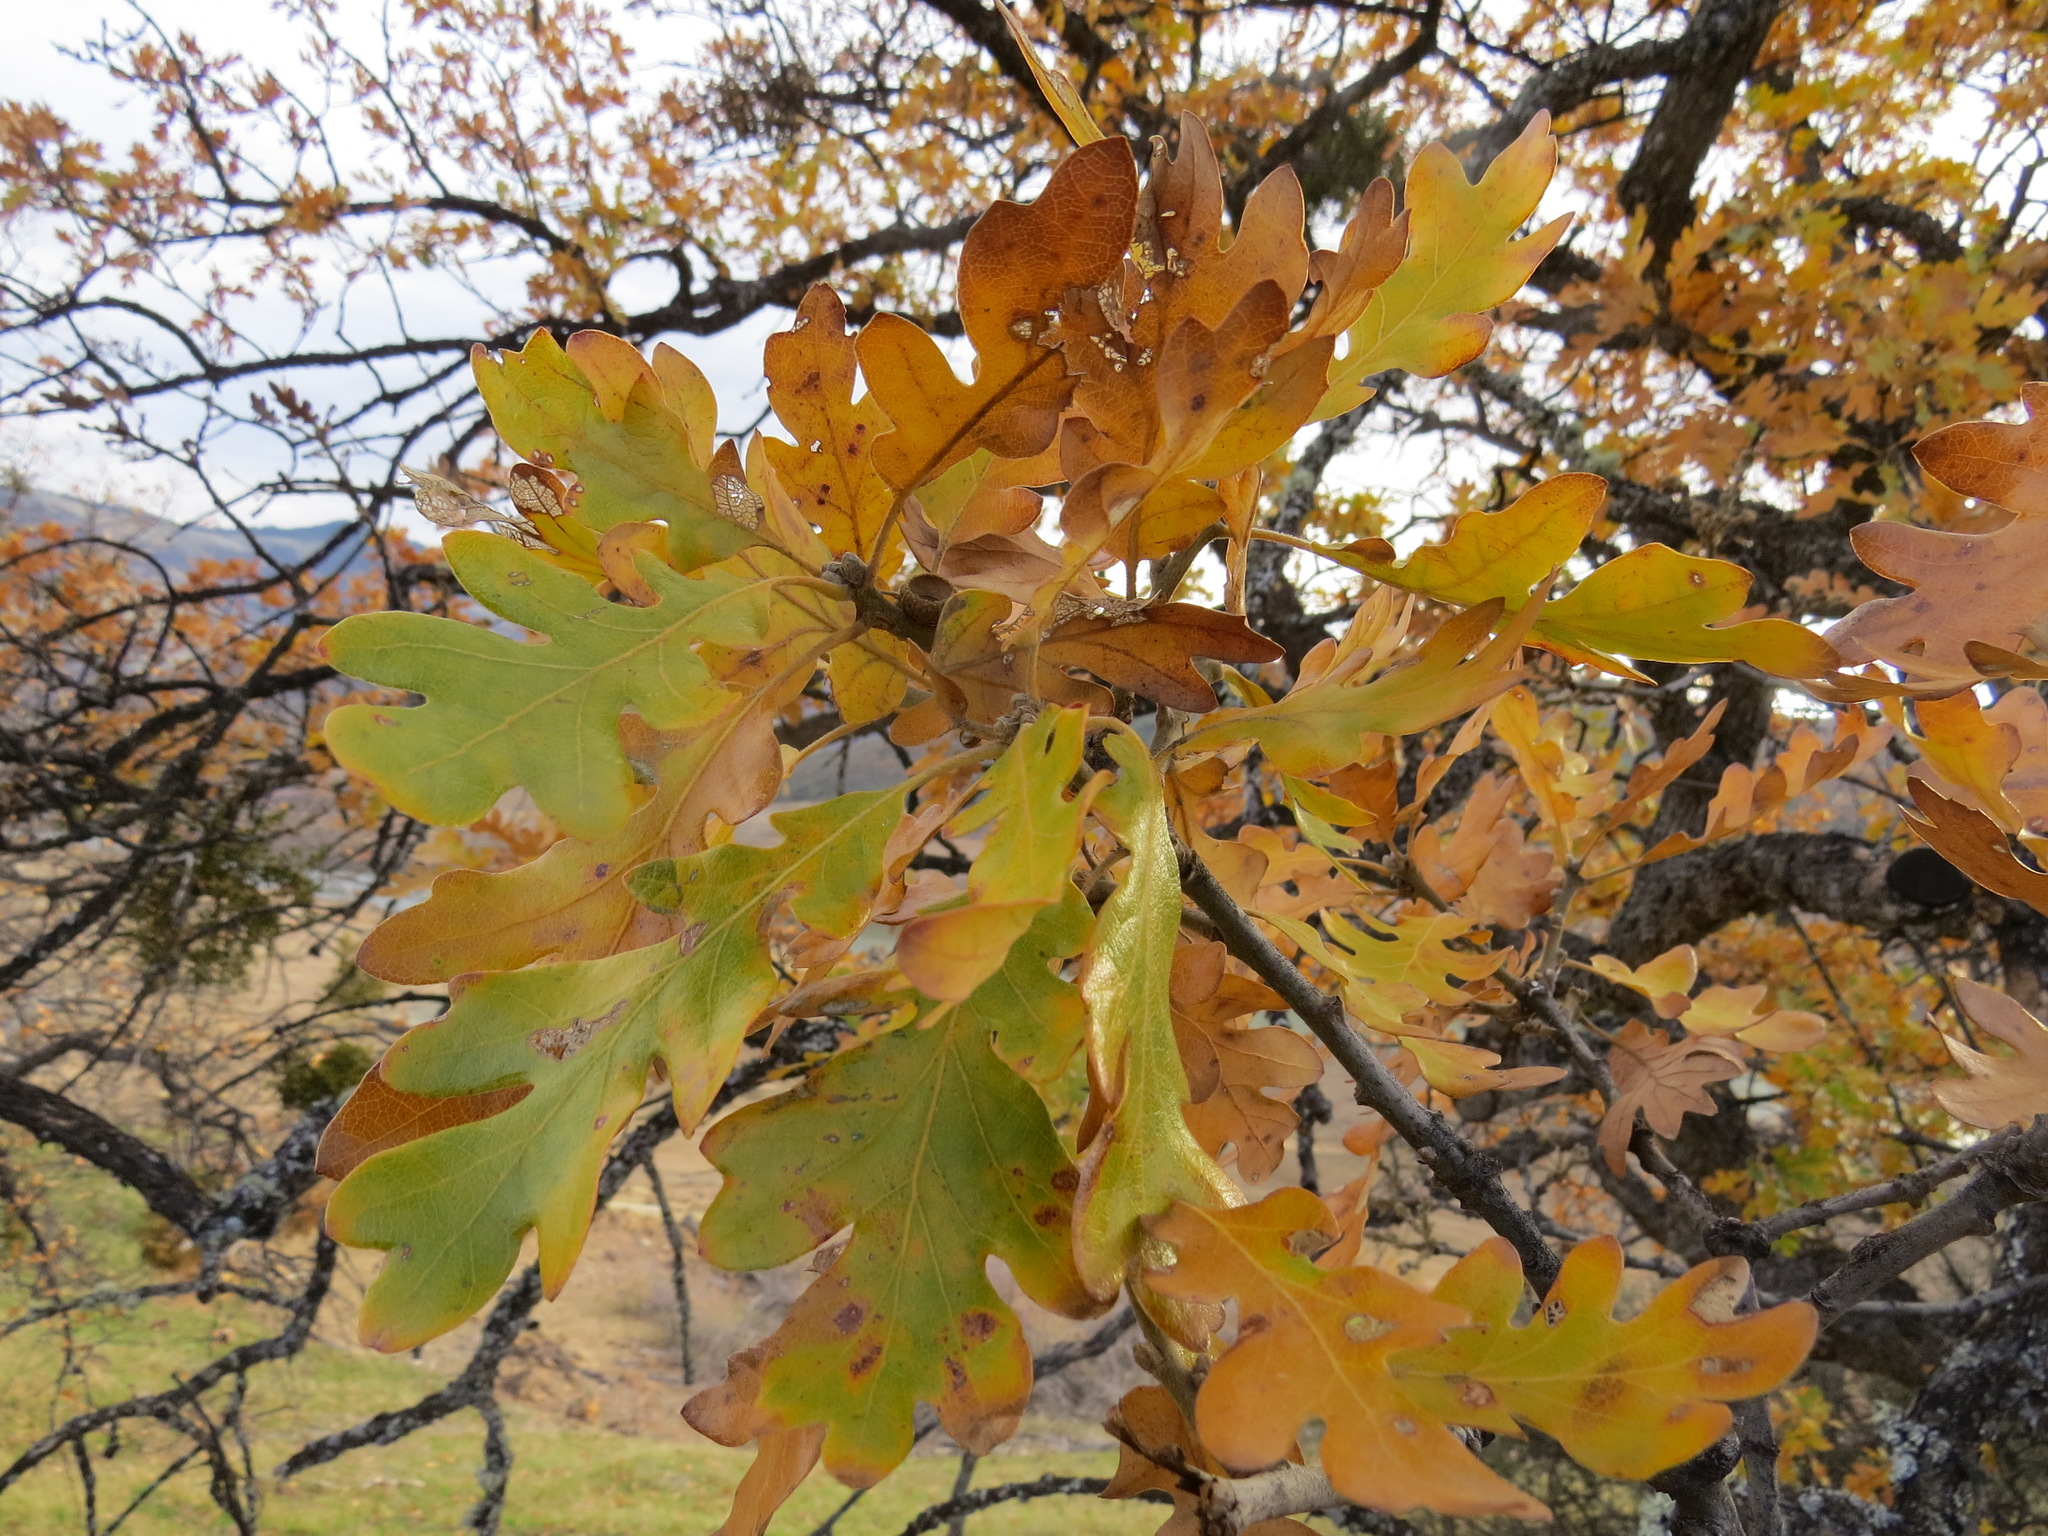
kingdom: Plantae
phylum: Tracheophyta
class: Magnoliopsida
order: Fagales
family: Fagaceae
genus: Quercus
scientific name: Quercus garryana
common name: Garry oak
